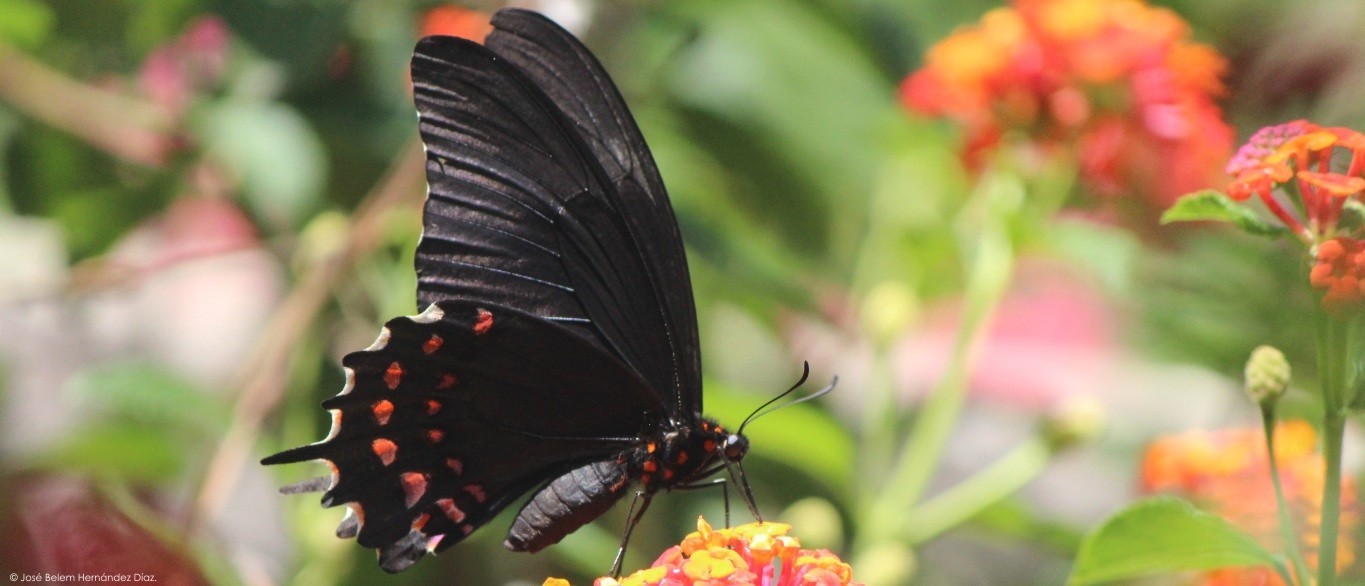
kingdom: Animalia
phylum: Arthropoda
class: Insecta
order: Lepidoptera
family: Papilionidae
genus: Heraclides
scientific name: Heraclides rogeri
